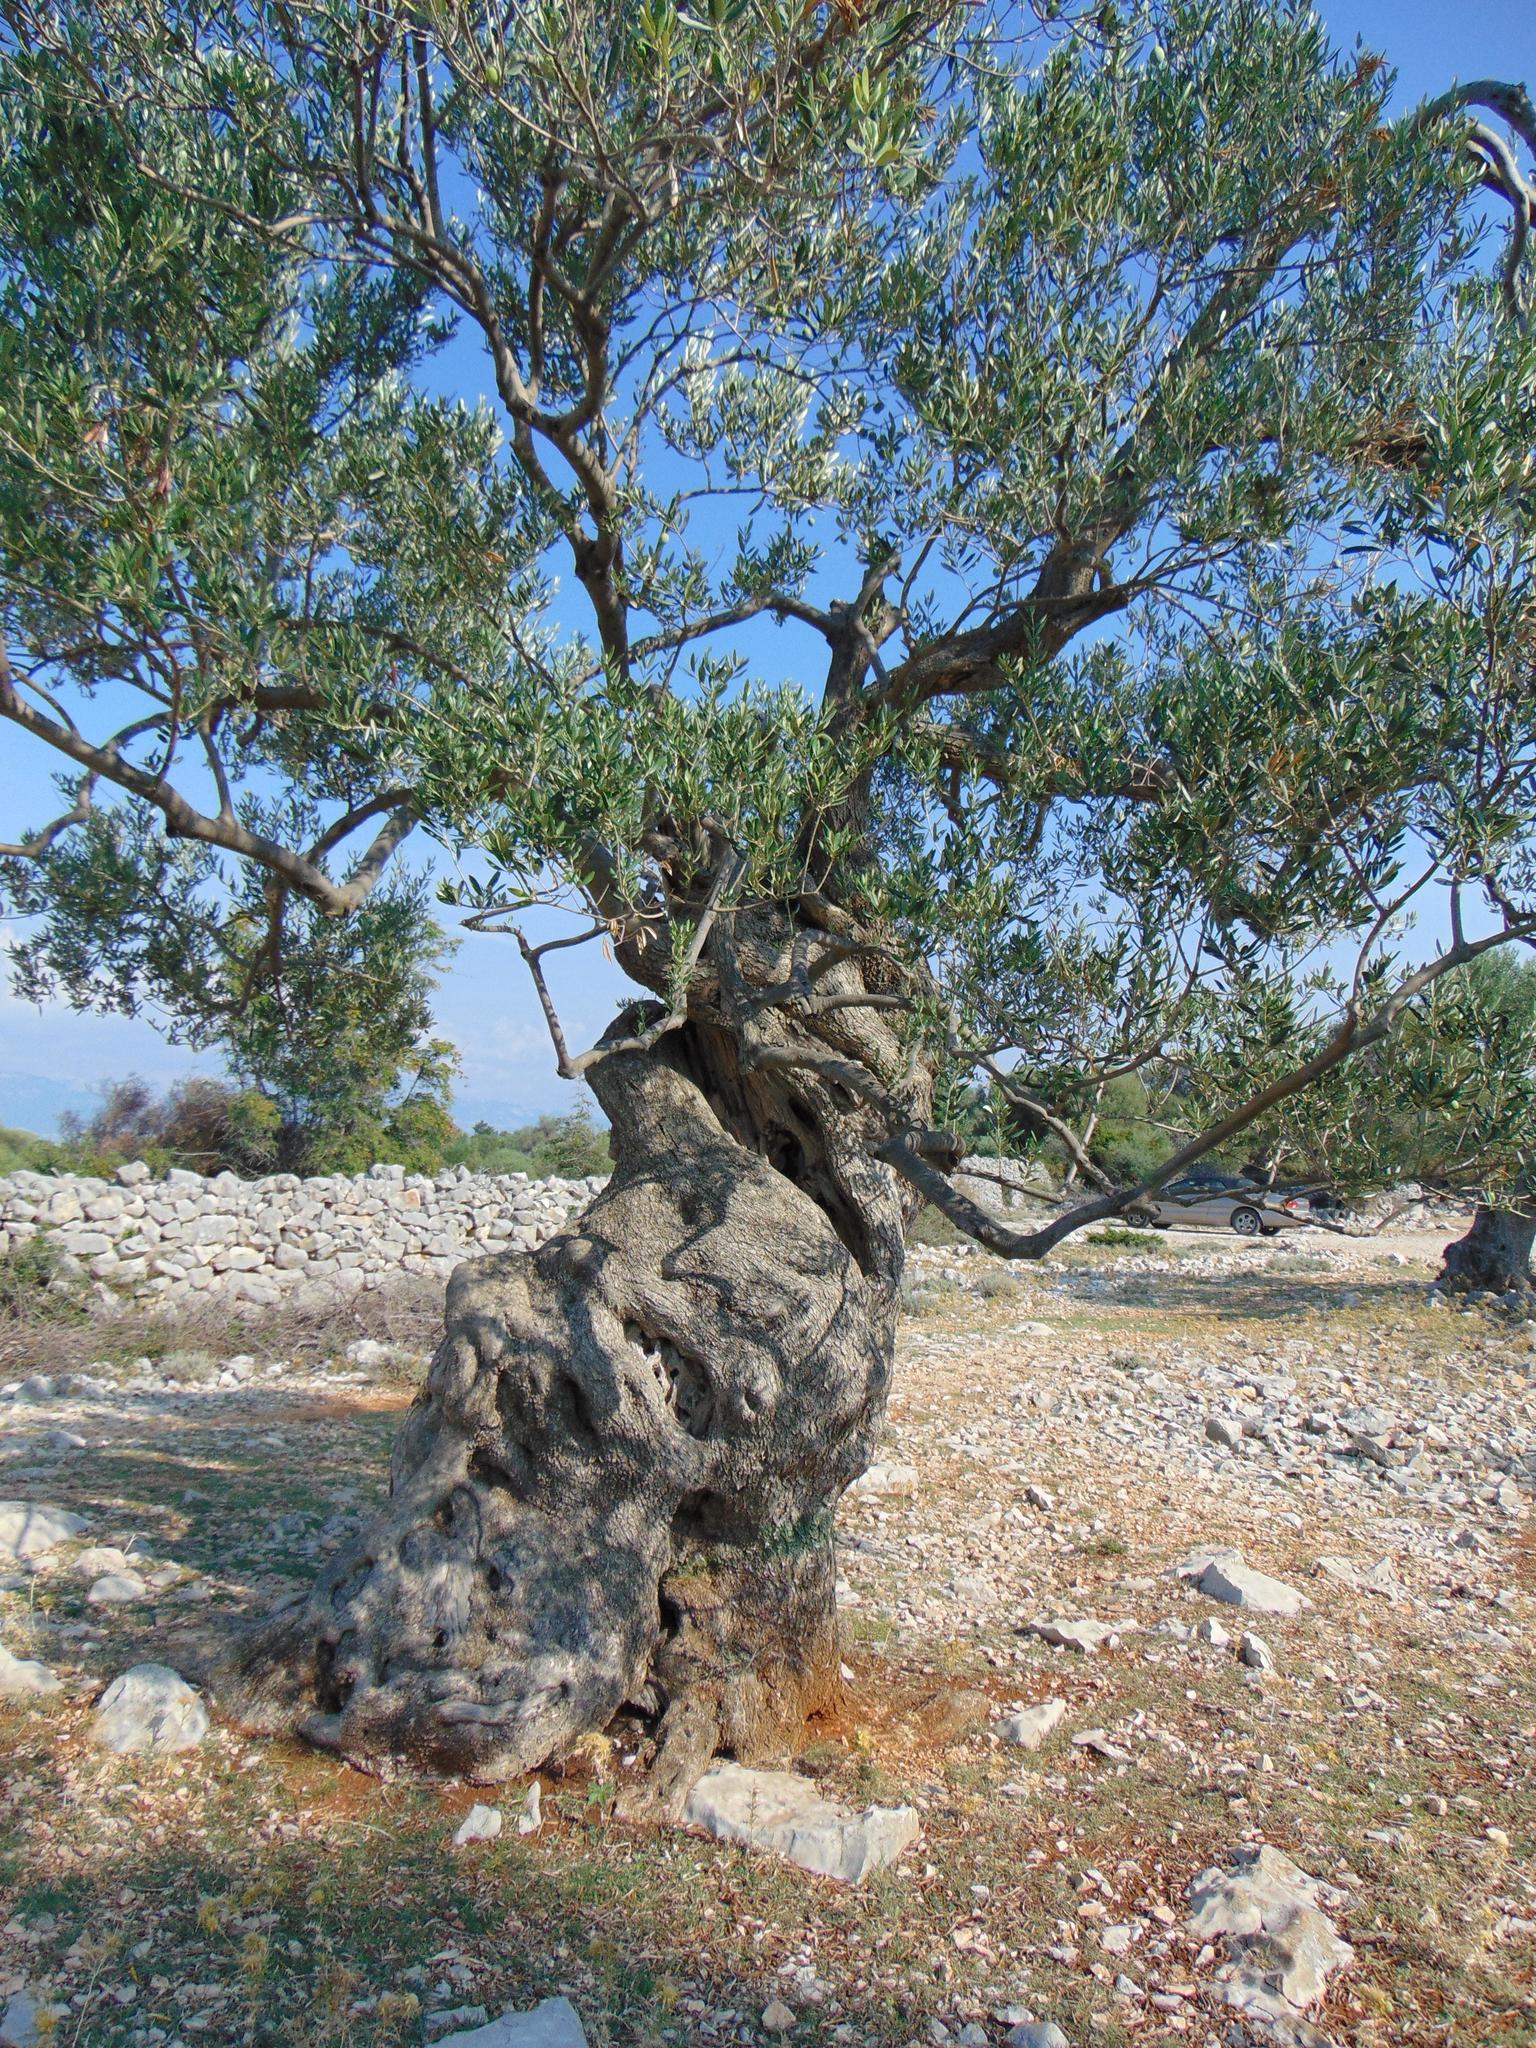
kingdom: Plantae
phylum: Tracheophyta
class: Magnoliopsida
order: Lamiales
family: Oleaceae
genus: Olea
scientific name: Olea europaea
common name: Olive
